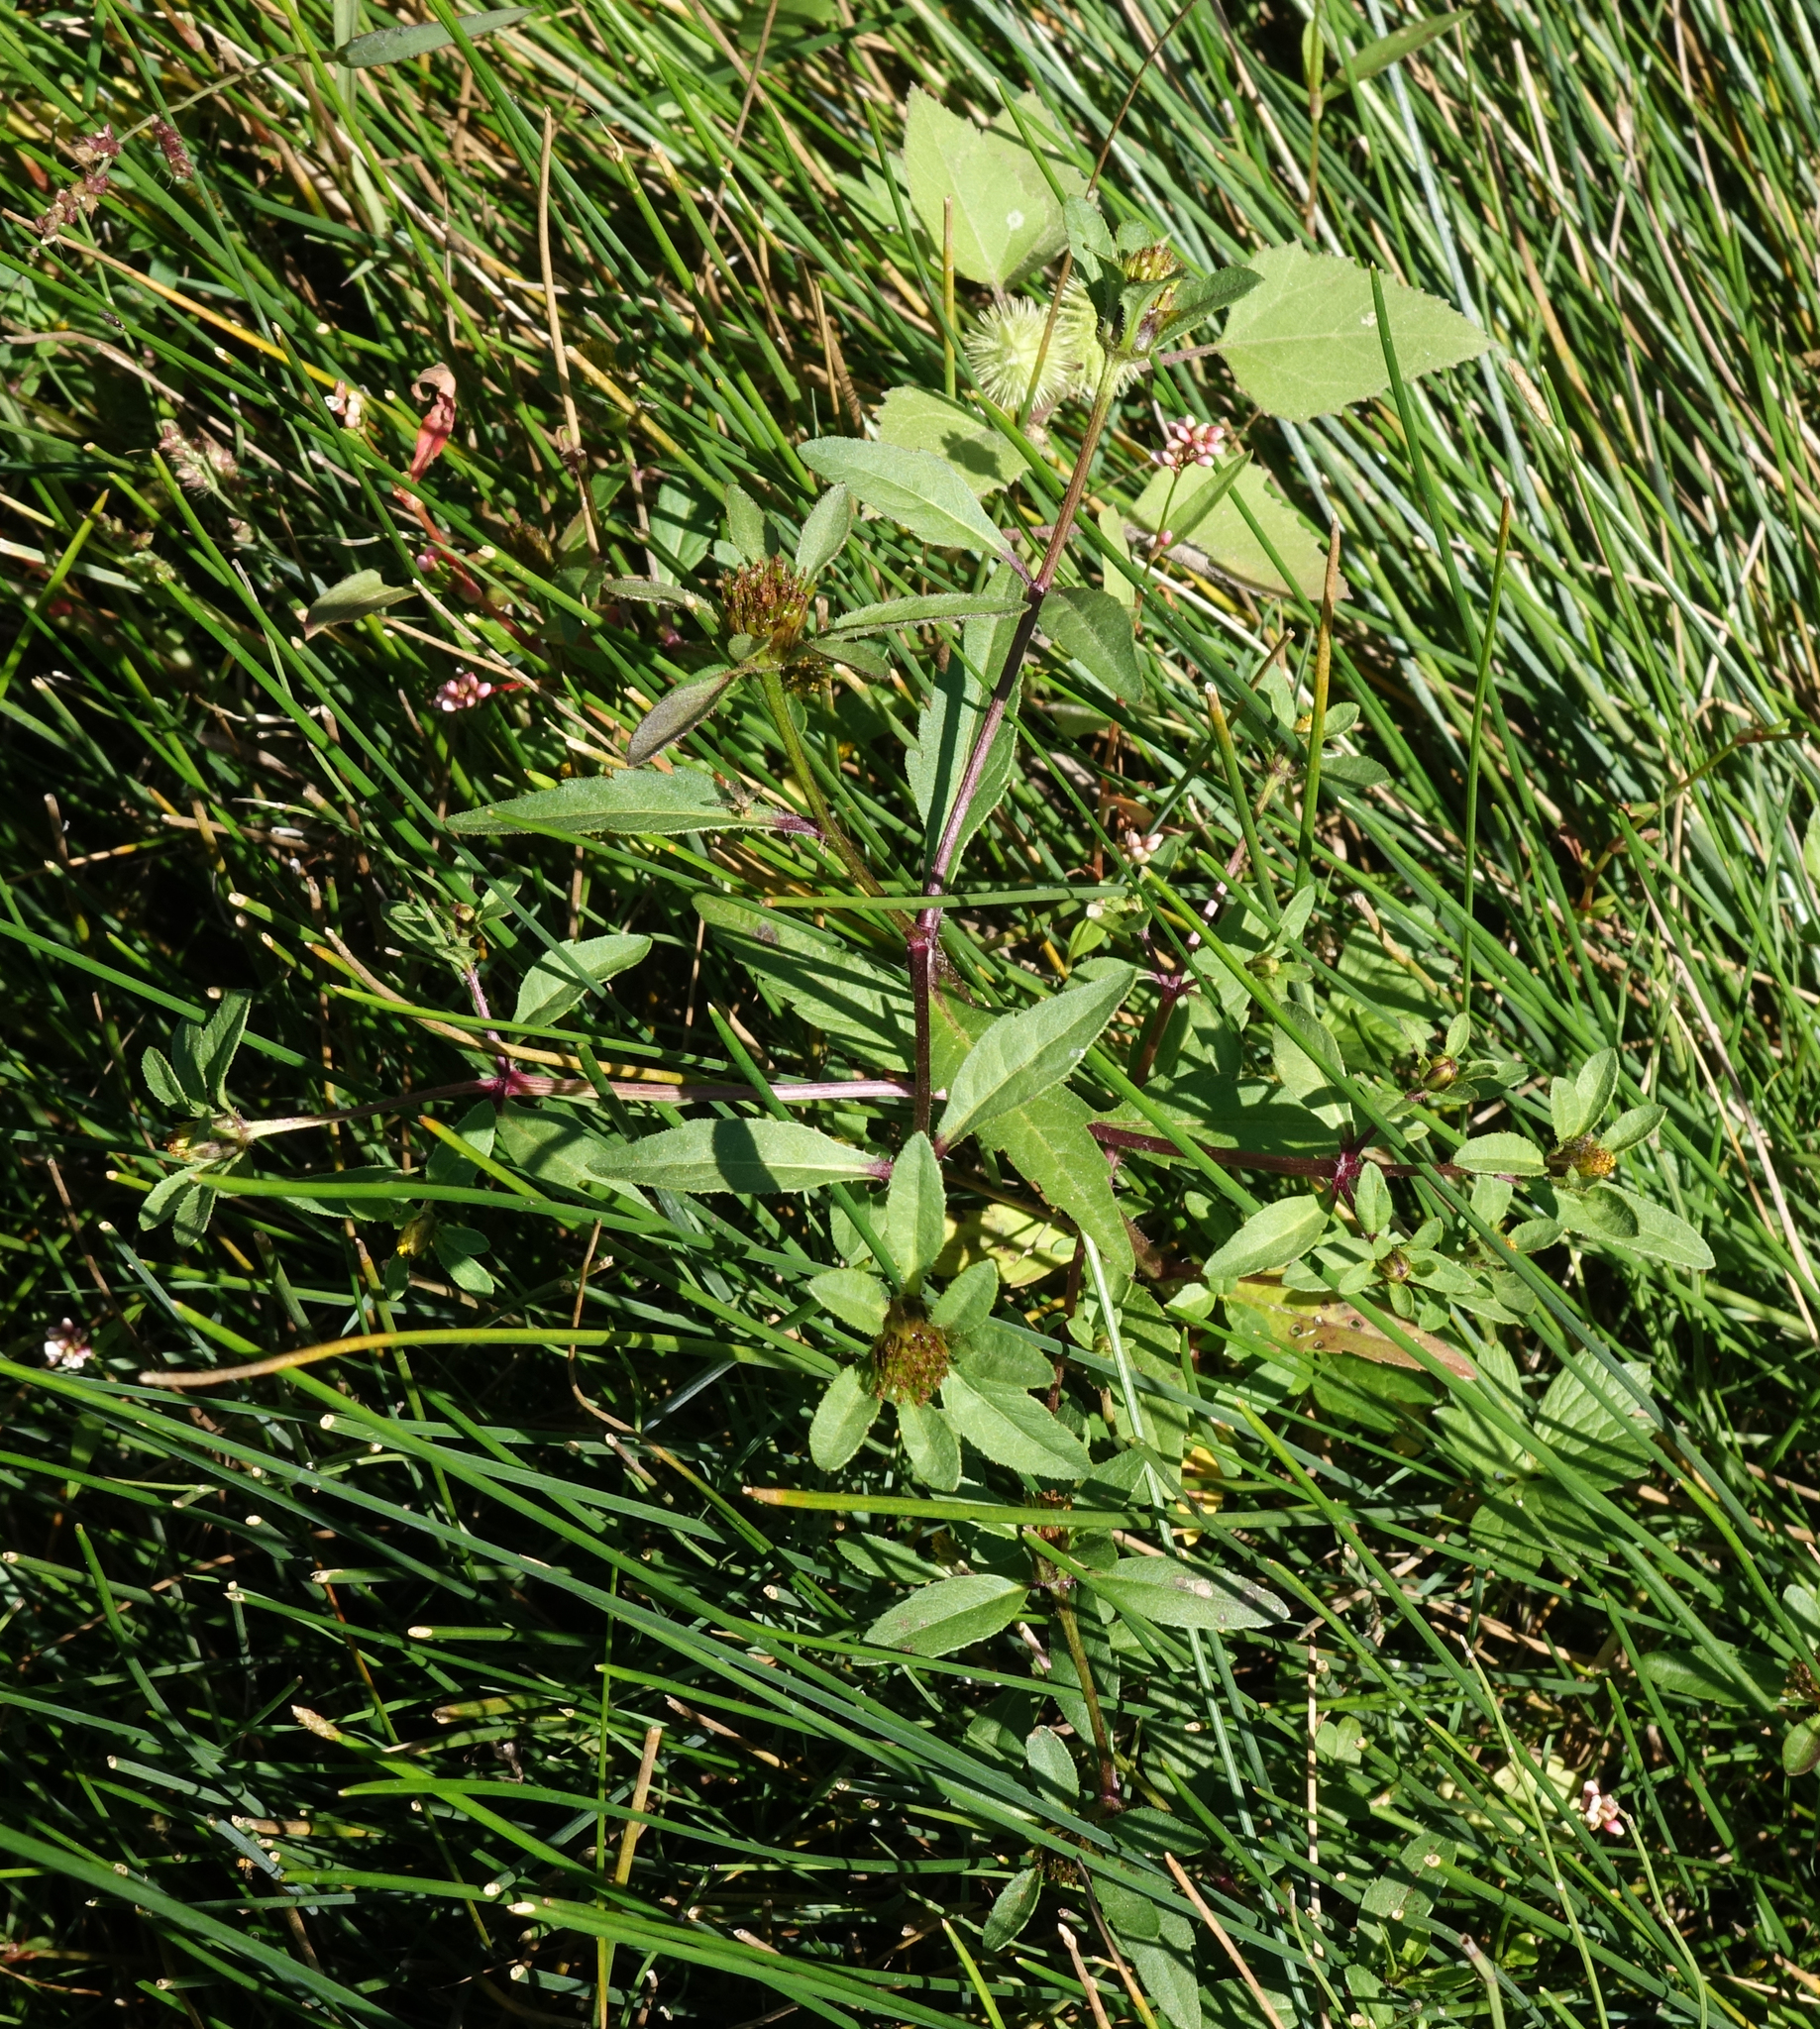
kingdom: Plantae
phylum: Tracheophyta
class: Magnoliopsida
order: Asterales
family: Asteraceae
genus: Bidens
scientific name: Bidens tripartita
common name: Trifid bur-marigold
